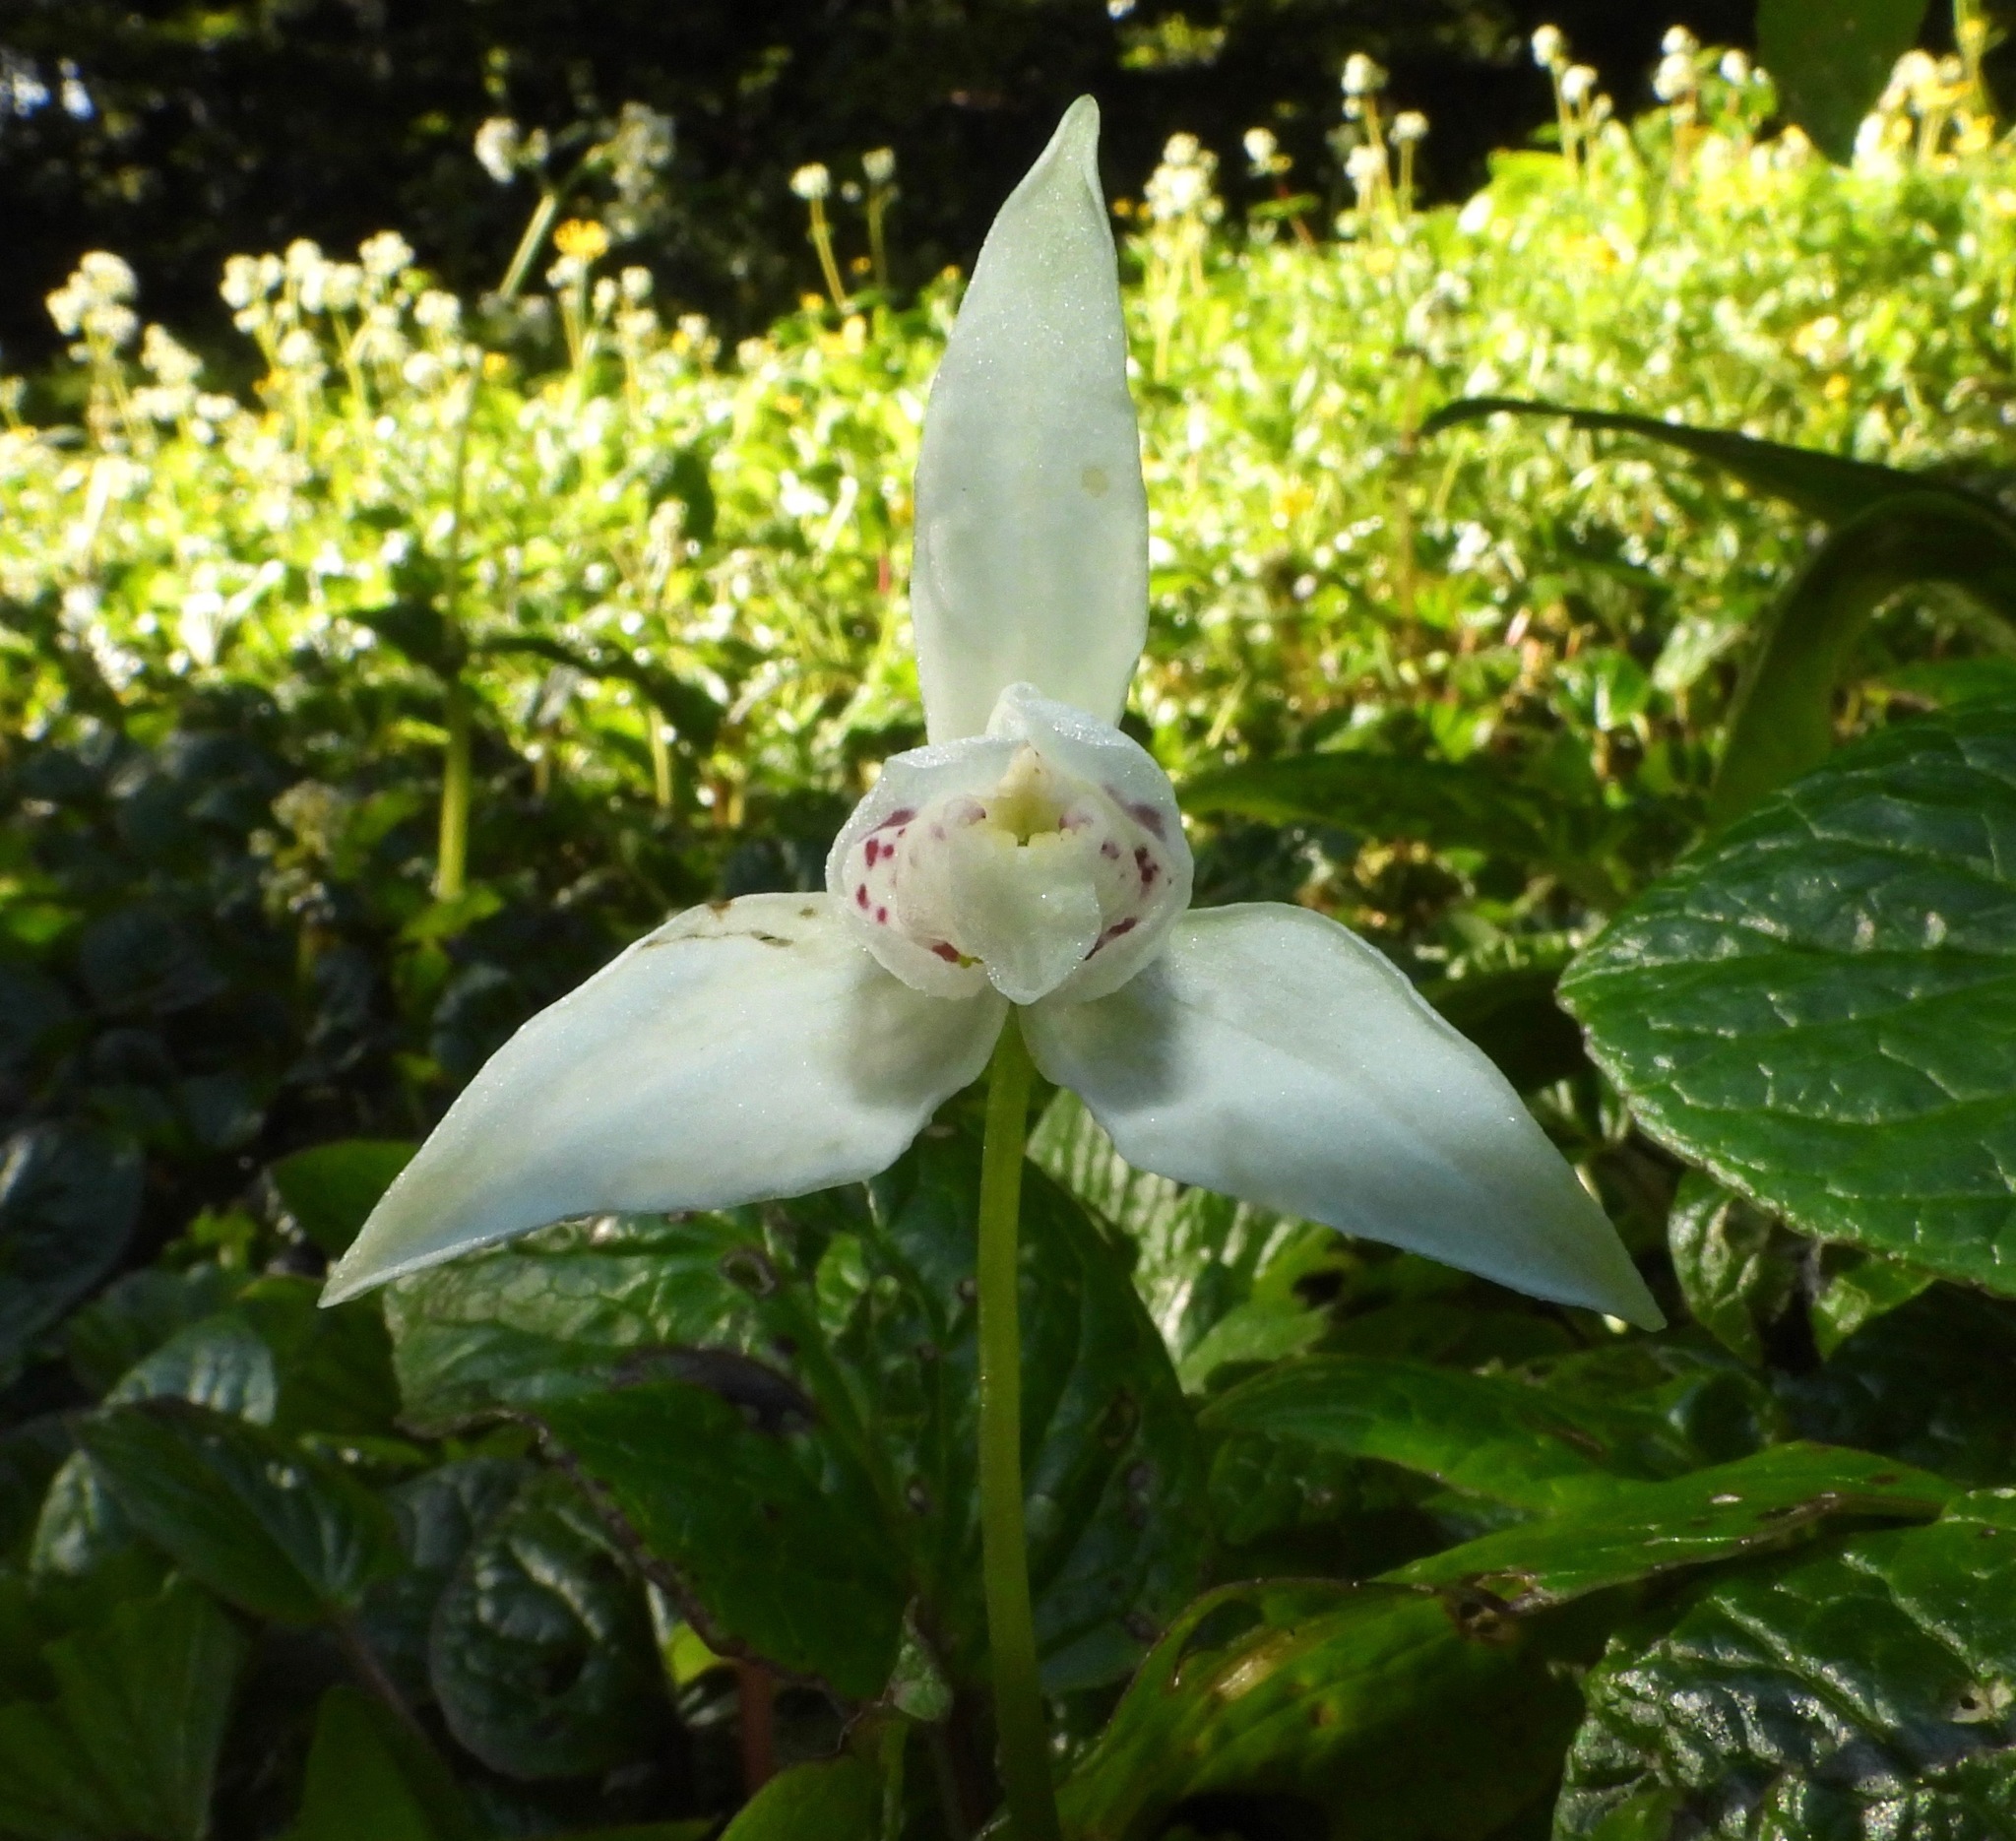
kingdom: Plantae
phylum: Tracheophyta
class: Liliopsida
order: Asparagales
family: Orchidaceae
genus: Codonorchis
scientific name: Codonorchis lessonii
